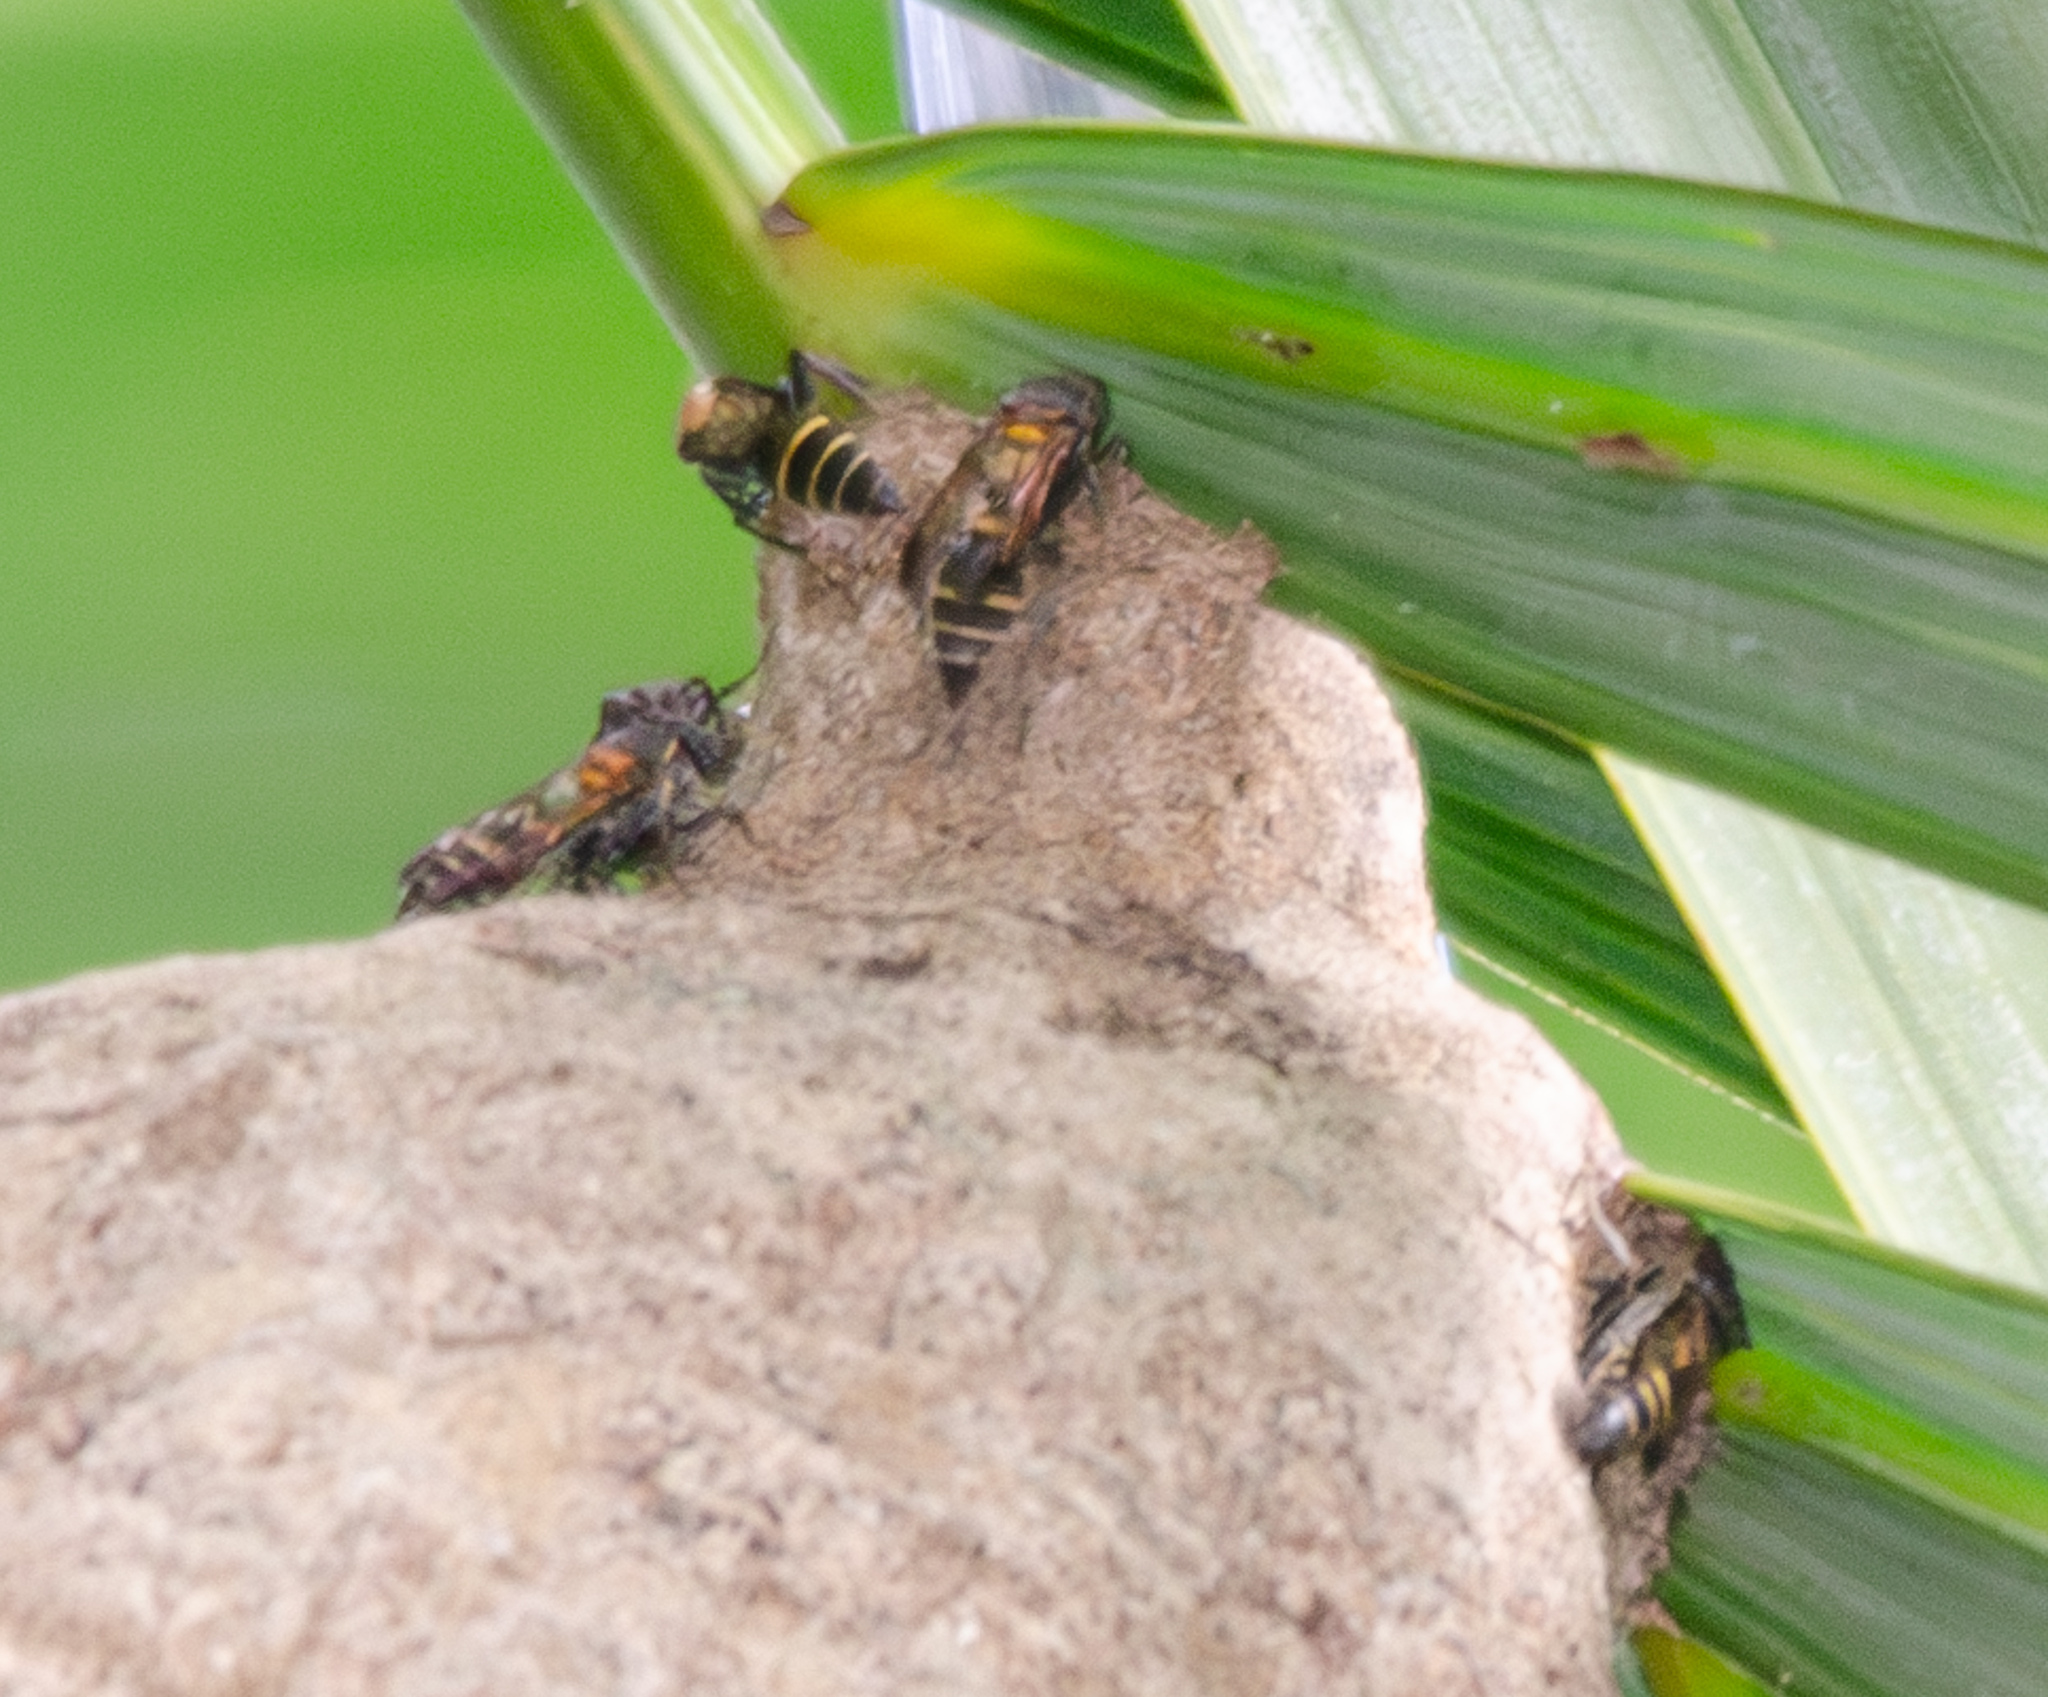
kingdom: Animalia
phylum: Arthropoda
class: Insecta
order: Hymenoptera
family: Eumenidae
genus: Polybia
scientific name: Polybia occidentalis
